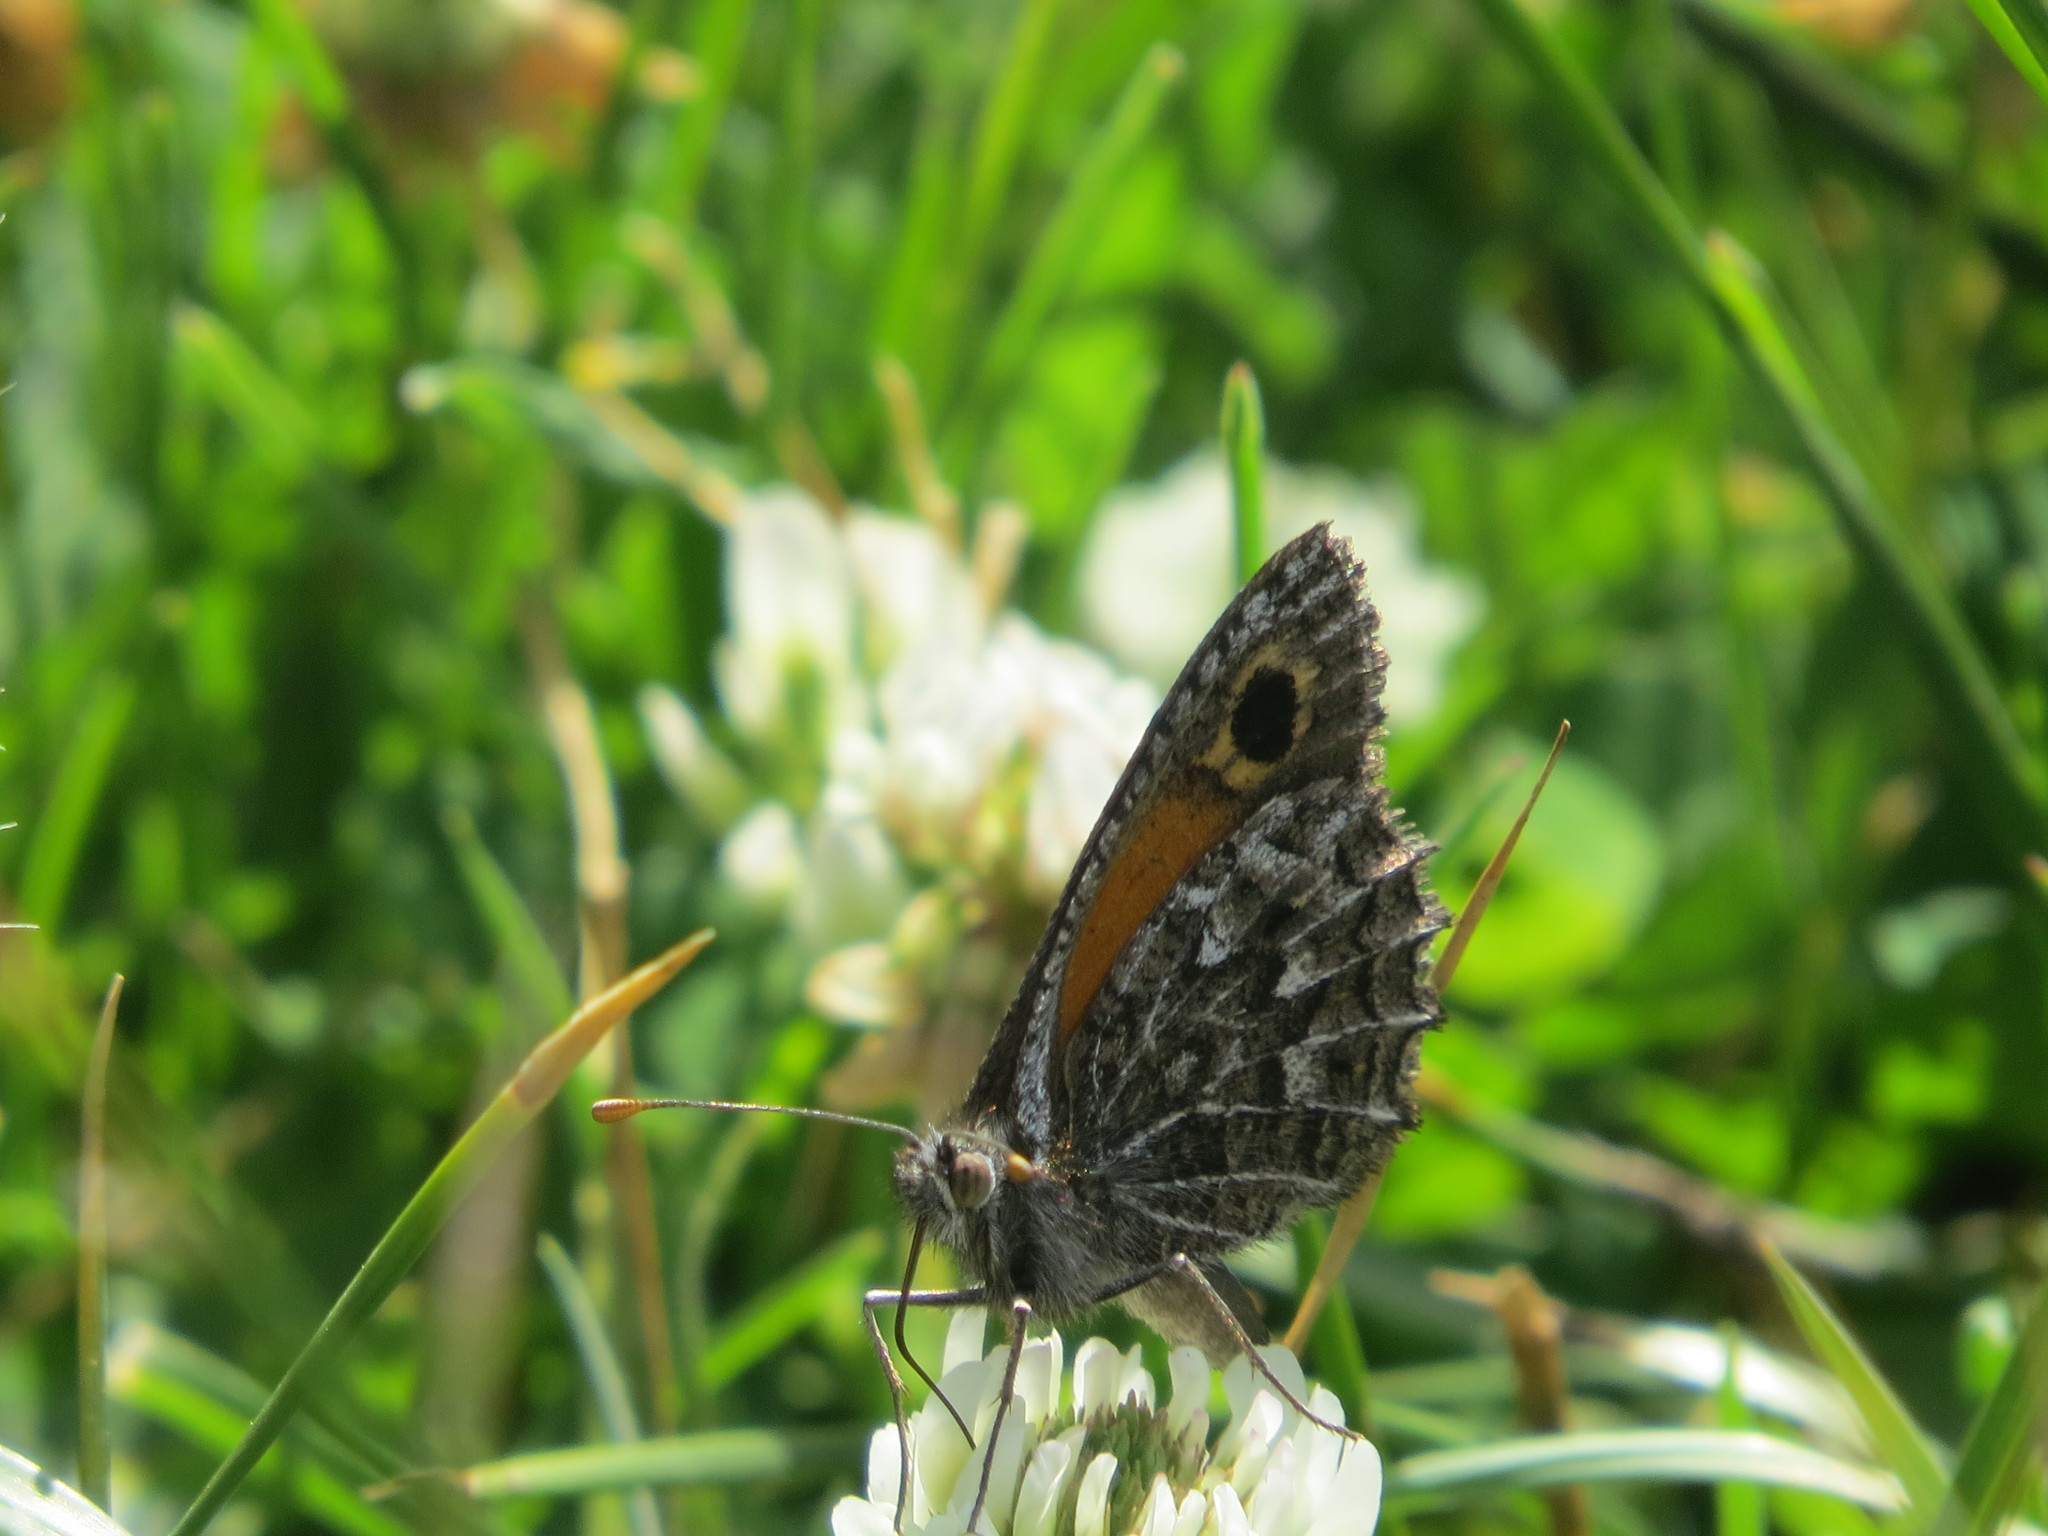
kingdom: Animalia
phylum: Arthropoda
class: Insecta
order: Lepidoptera
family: Nymphalidae
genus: Argyrophorus
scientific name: Argyrophorus
